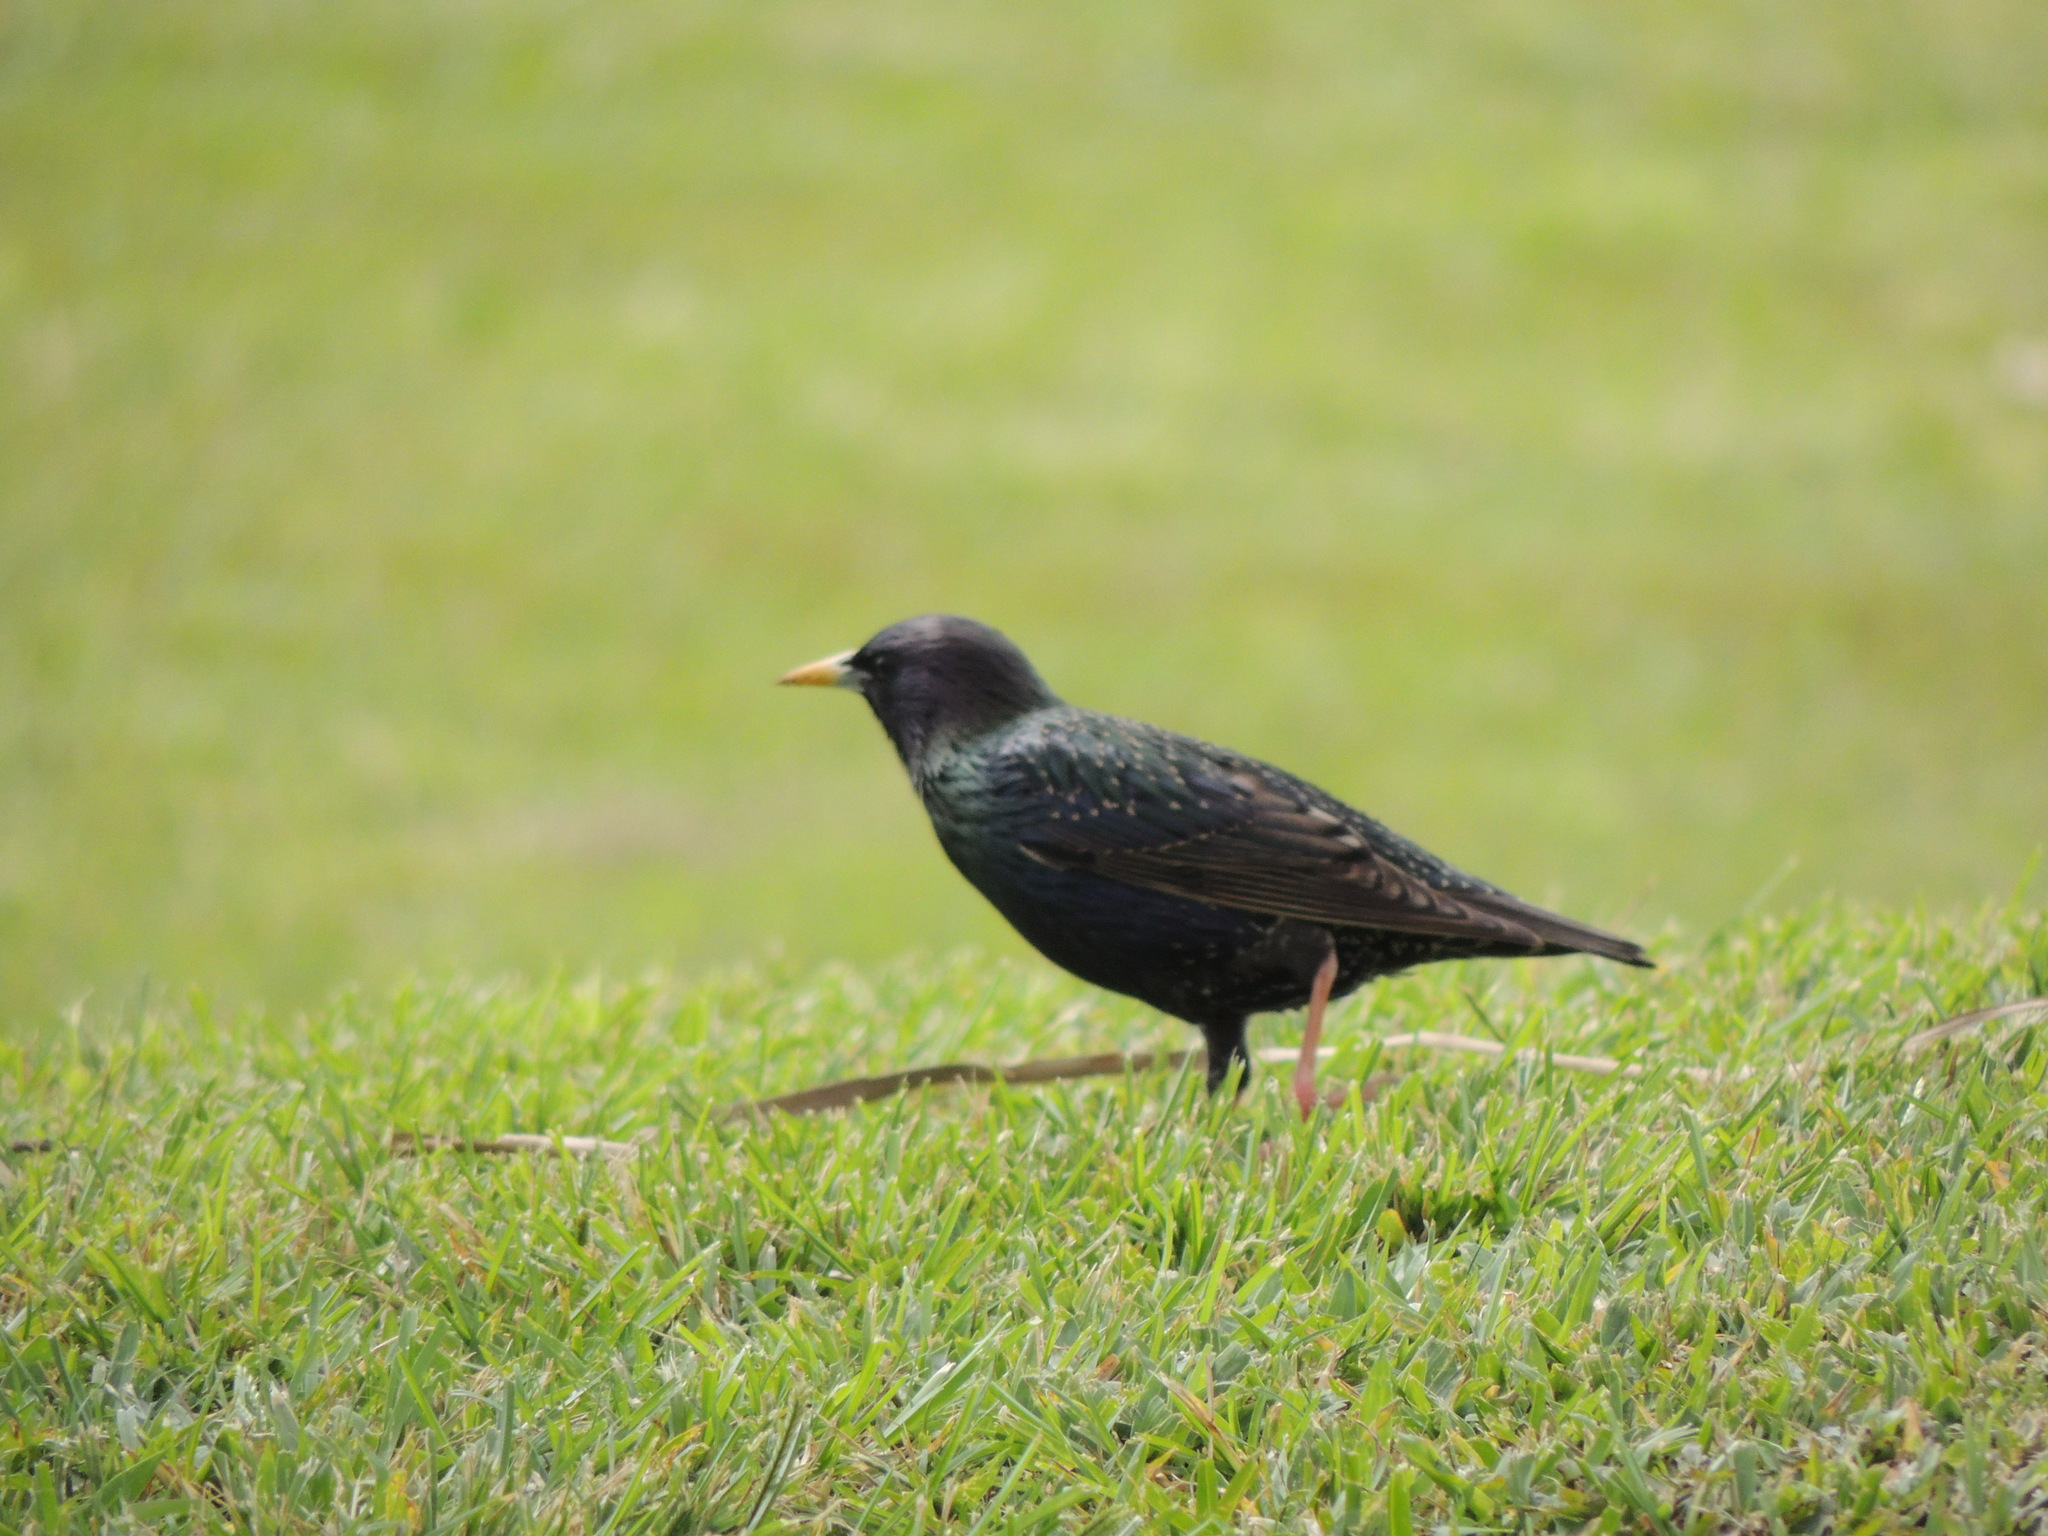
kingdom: Animalia
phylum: Chordata
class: Aves
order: Passeriformes
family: Sturnidae
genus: Sturnus
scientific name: Sturnus vulgaris
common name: Common starling
